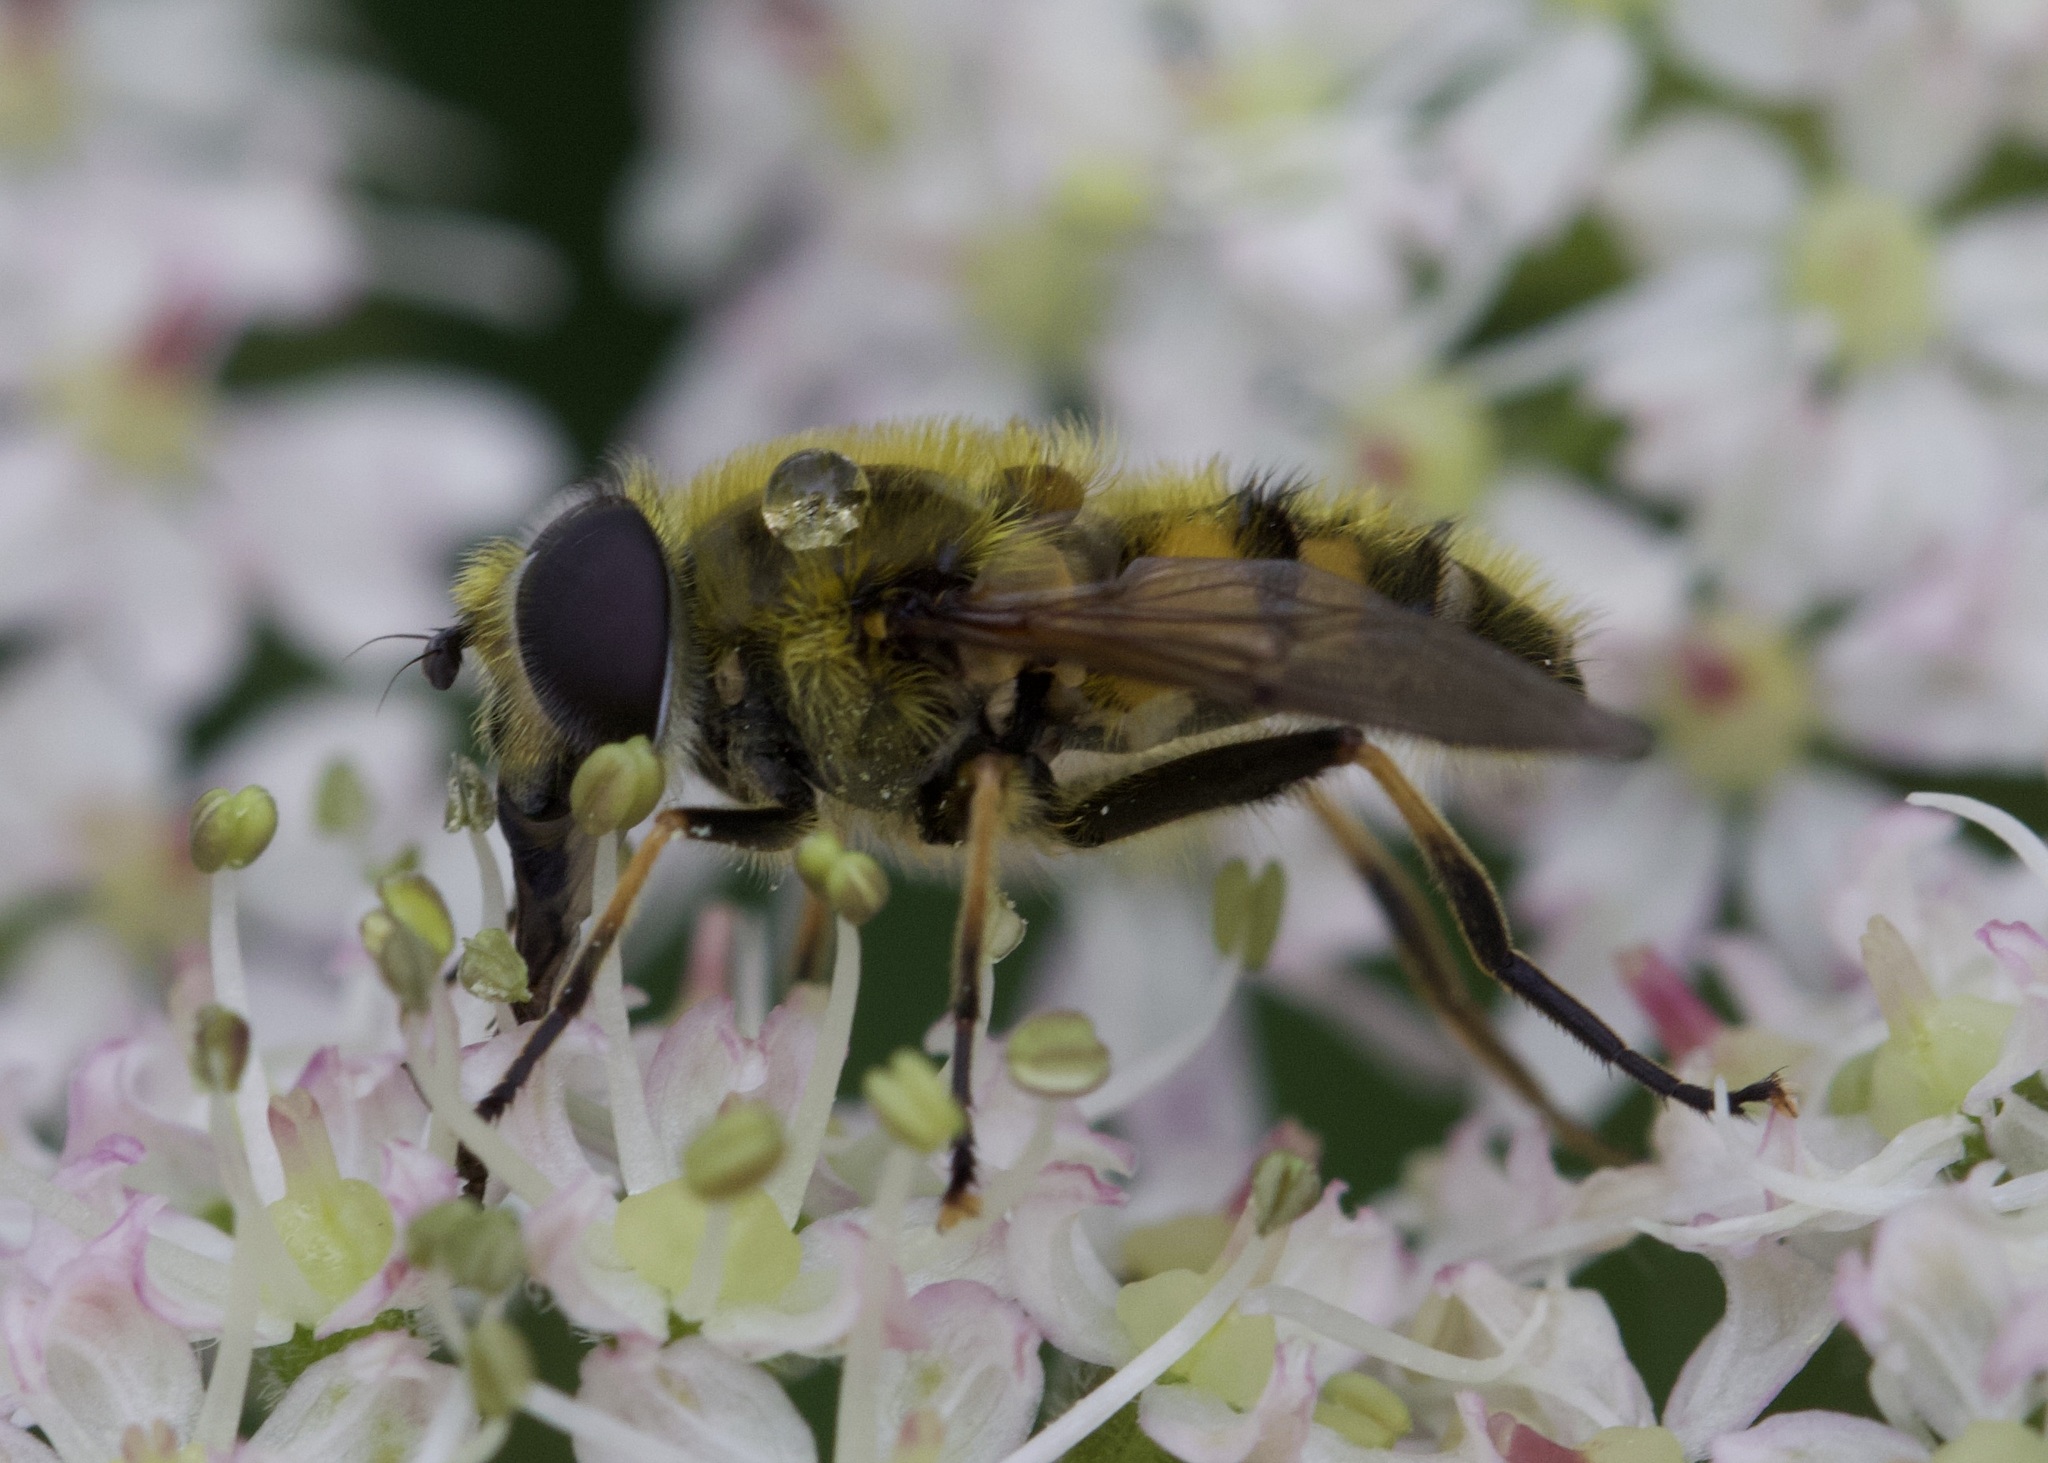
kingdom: Animalia
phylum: Arthropoda
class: Insecta
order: Diptera
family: Syrphidae
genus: Myathropa
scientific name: Myathropa florea
